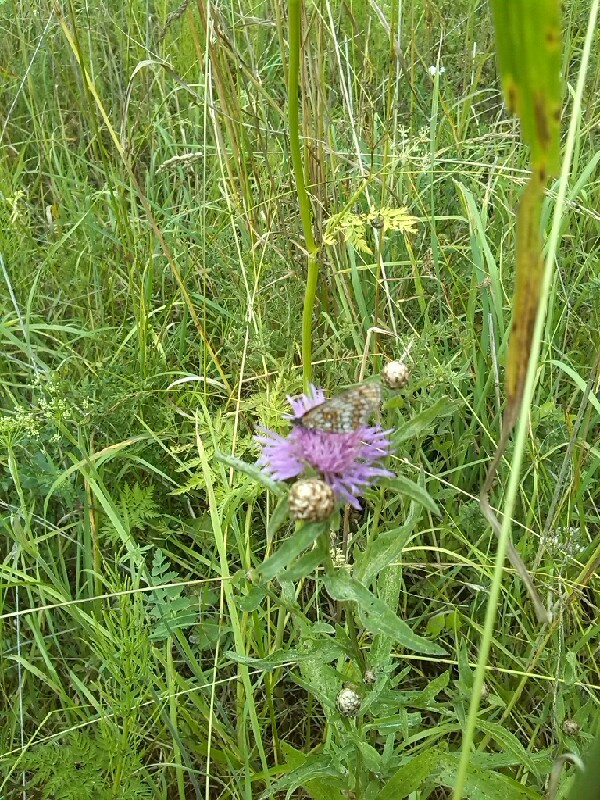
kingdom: Animalia
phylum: Arthropoda
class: Insecta
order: Lepidoptera
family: Nymphalidae
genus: Melitaea
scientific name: Melitaea athalia
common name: Heath fritillary
